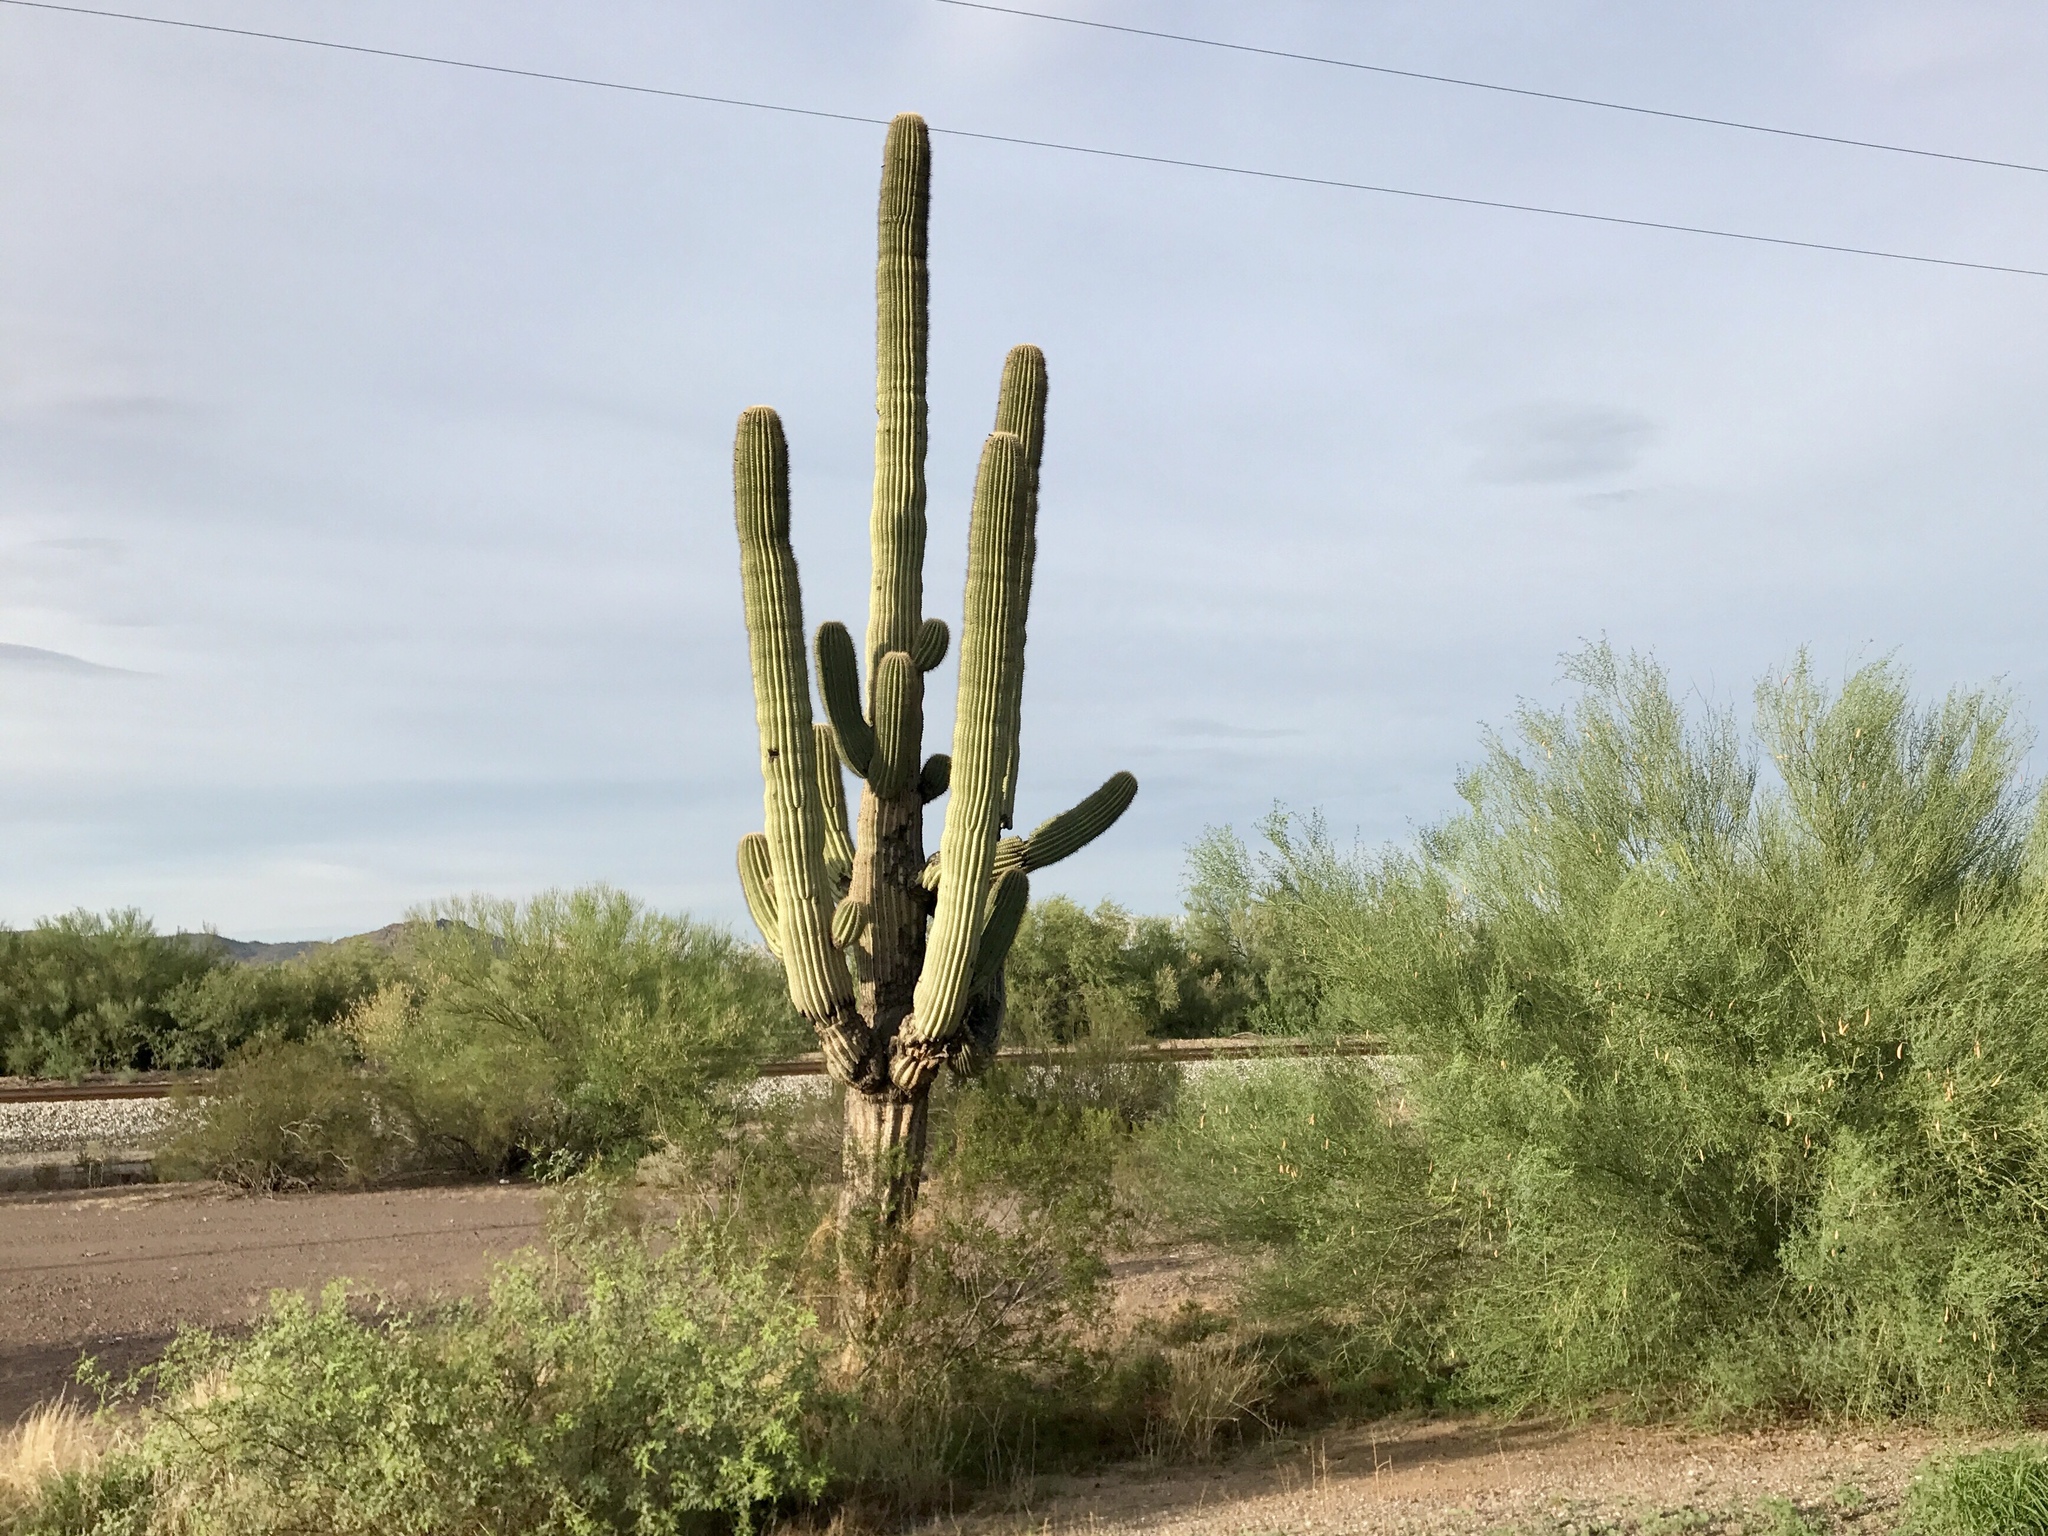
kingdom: Plantae
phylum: Tracheophyta
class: Magnoliopsida
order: Caryophyllales
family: Cactaceae
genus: Carnegiea
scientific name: Carnegiea gigantea
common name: Saguaro
